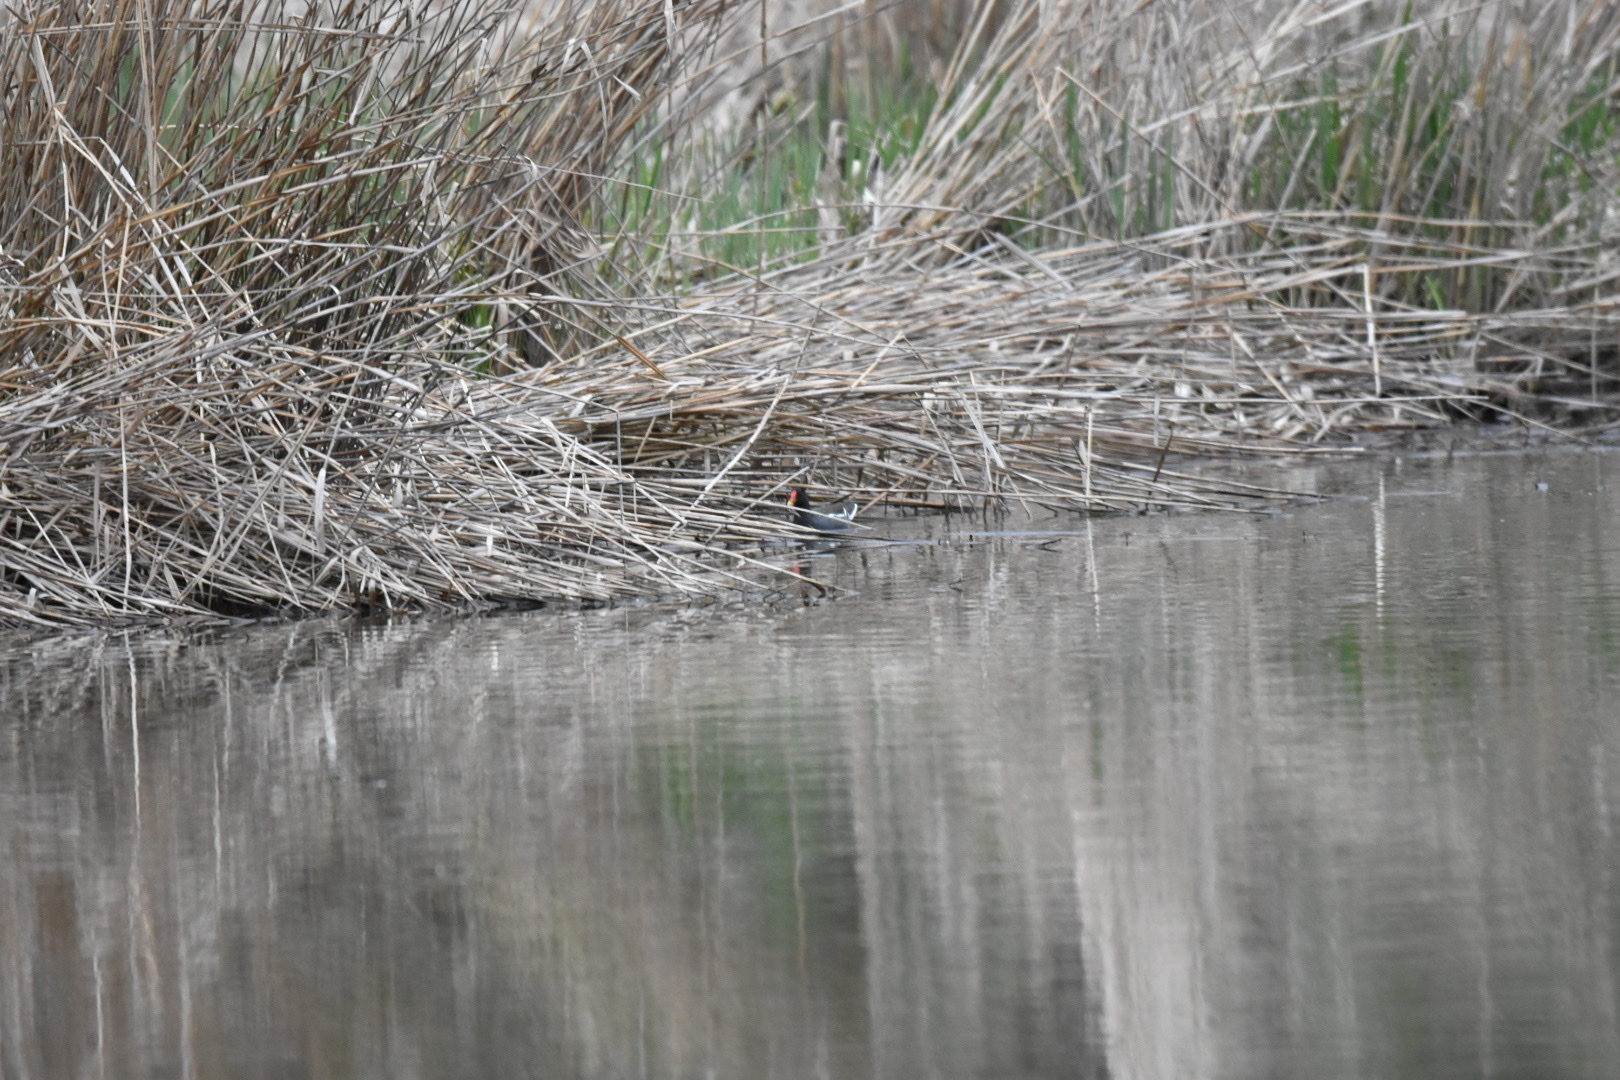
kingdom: Animalia
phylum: Chordata
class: Aves
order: Gruiformes
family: Rallidae
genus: Gallinula
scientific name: Gallinula chloropus
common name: Common moorhen
